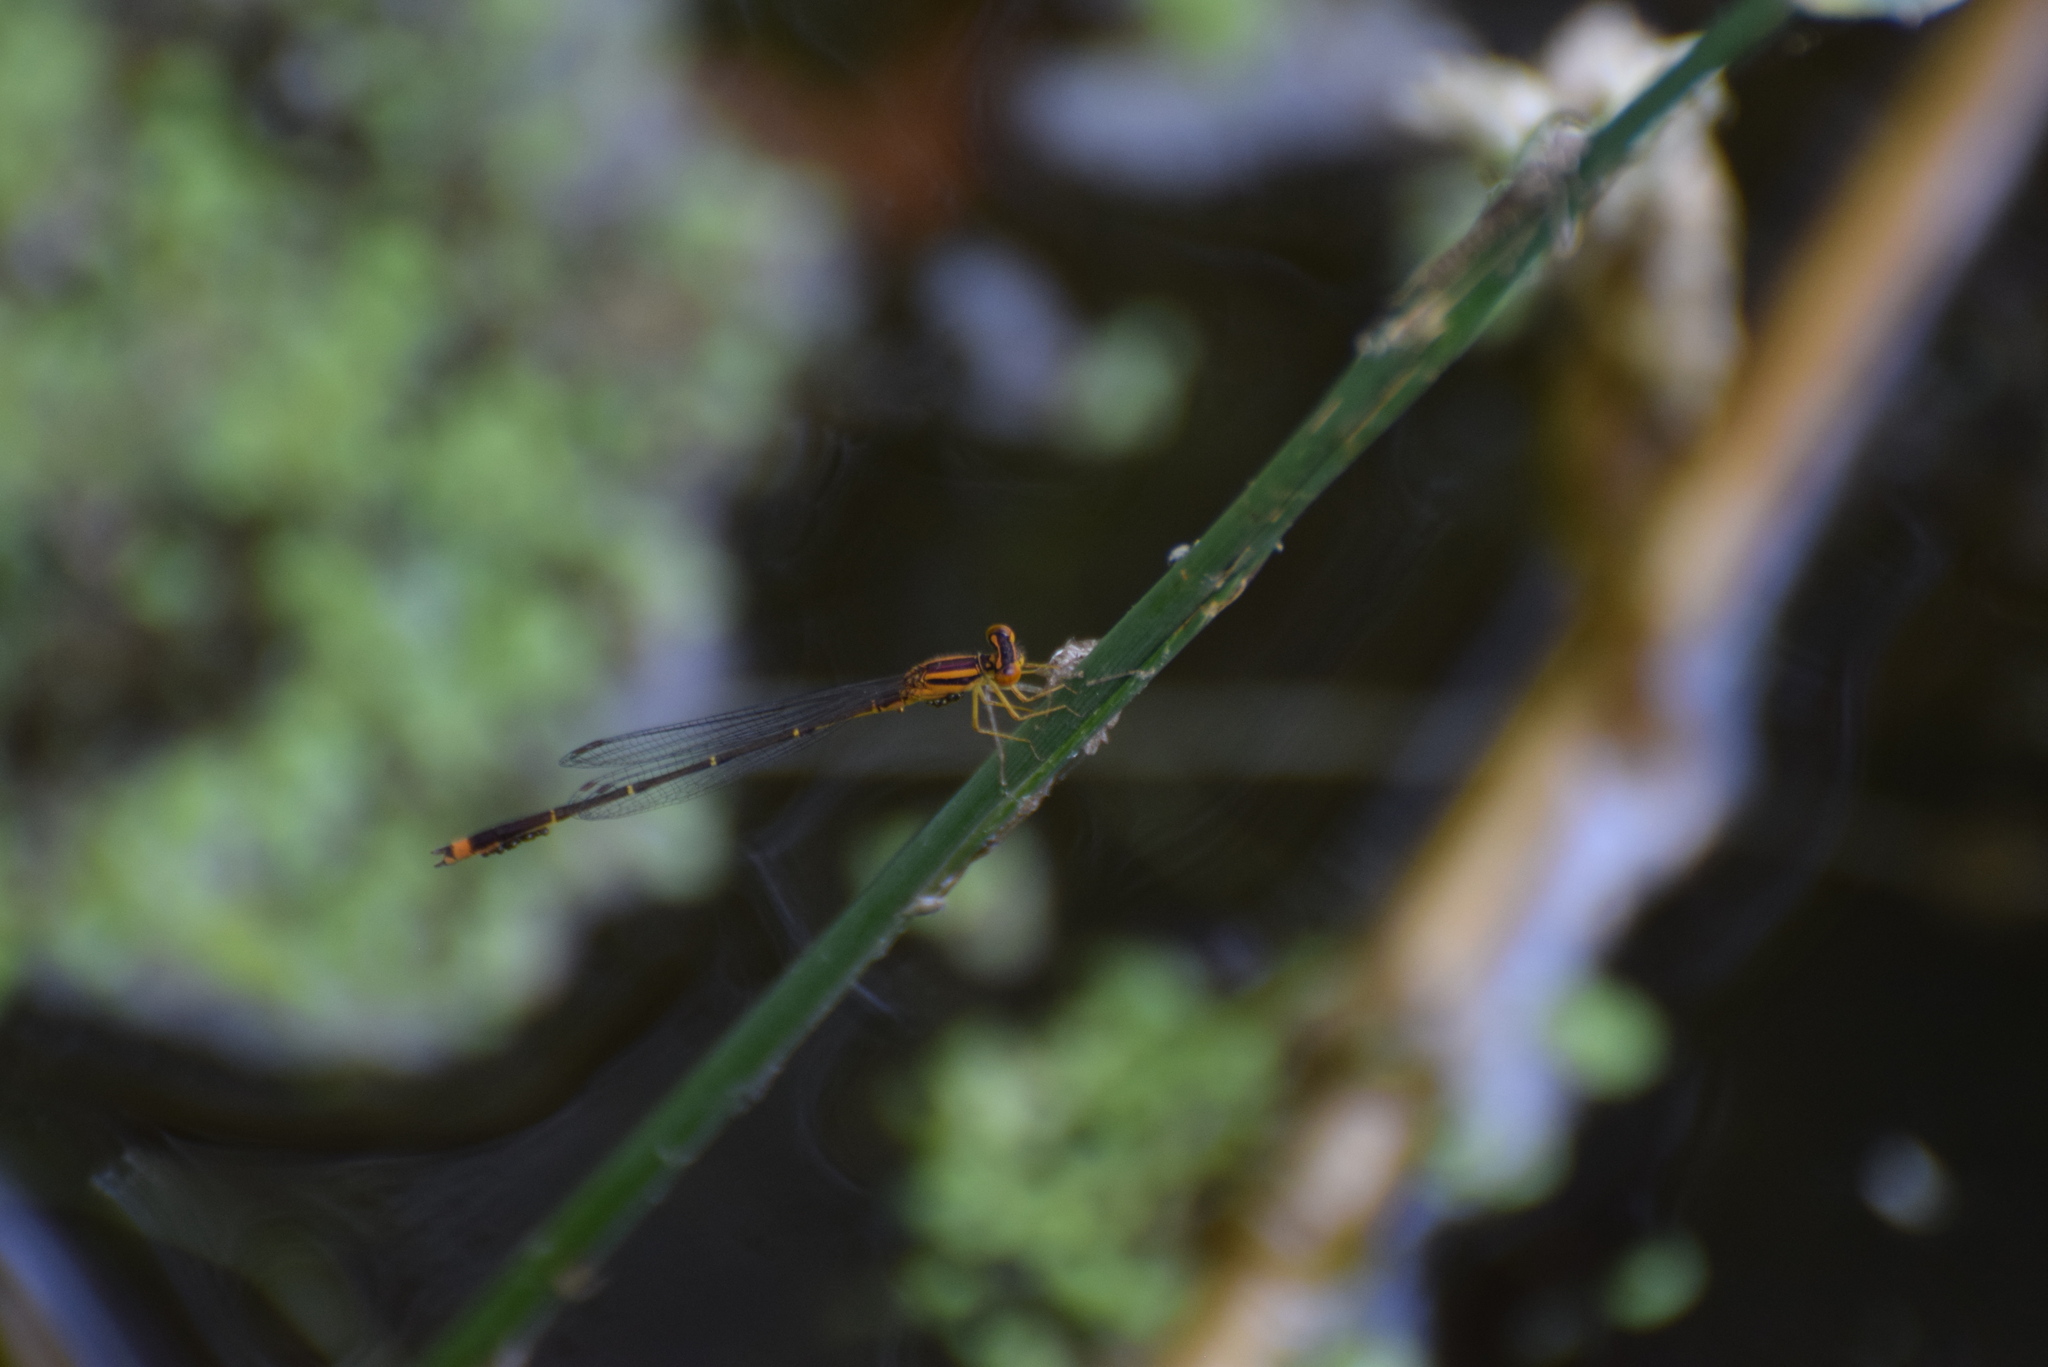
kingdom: Animalia
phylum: Arthropoda
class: Insecta
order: Odonata
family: Coenagrionidae
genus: Enallagma
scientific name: Enallagma signatum
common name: Orange bluet
